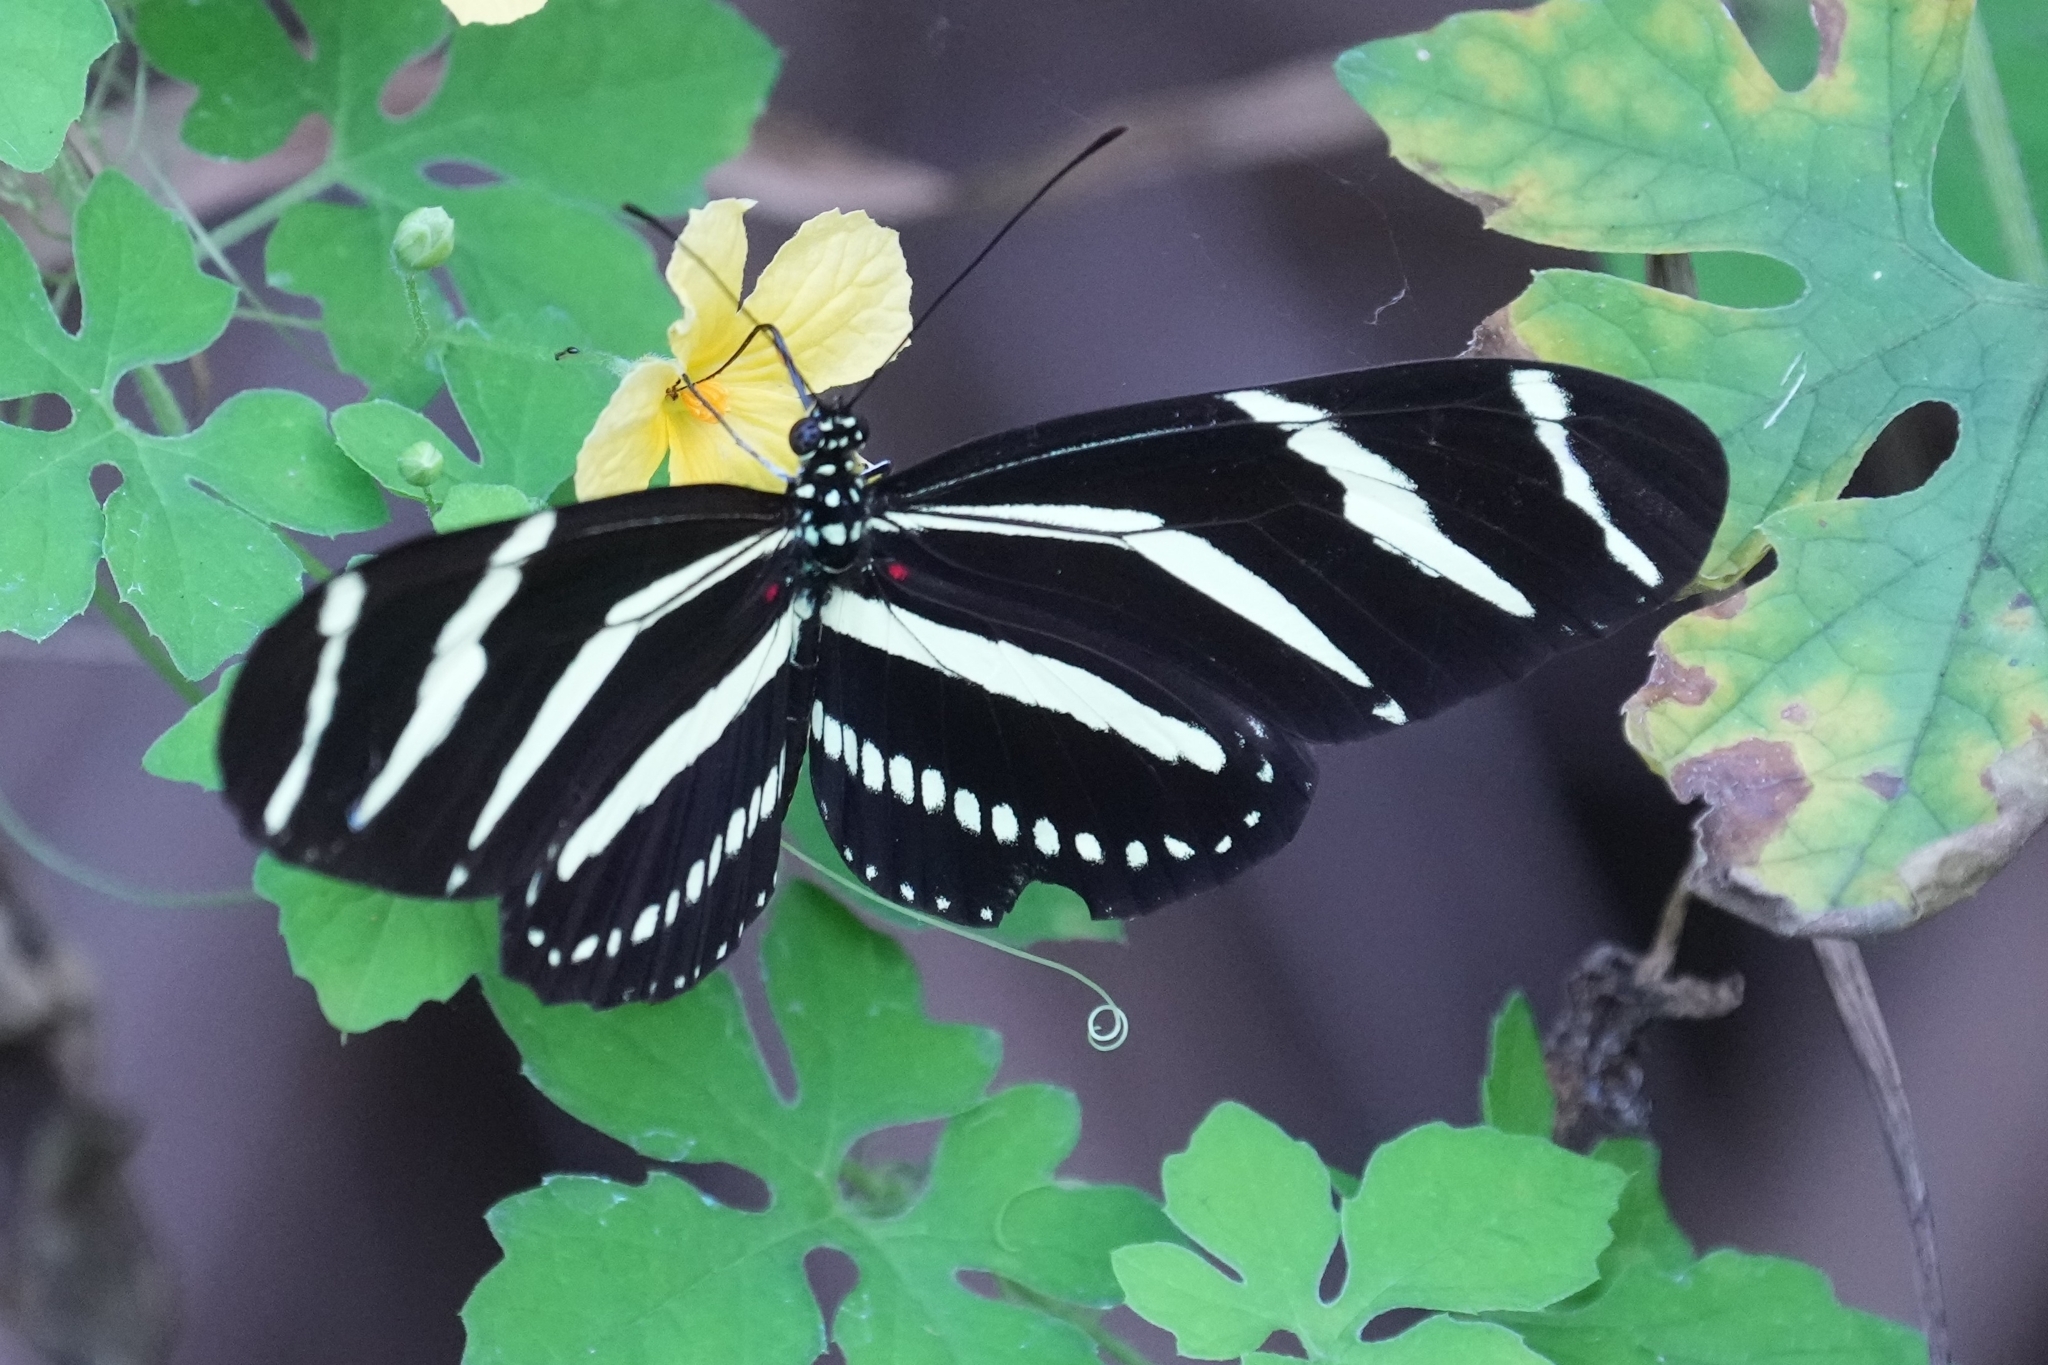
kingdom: Animalia
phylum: Arthropoda
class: Insecta
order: Lepidoptera
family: Nymphalidae
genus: Heliconius
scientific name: Heliconius charithonia
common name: Zebra long wing
